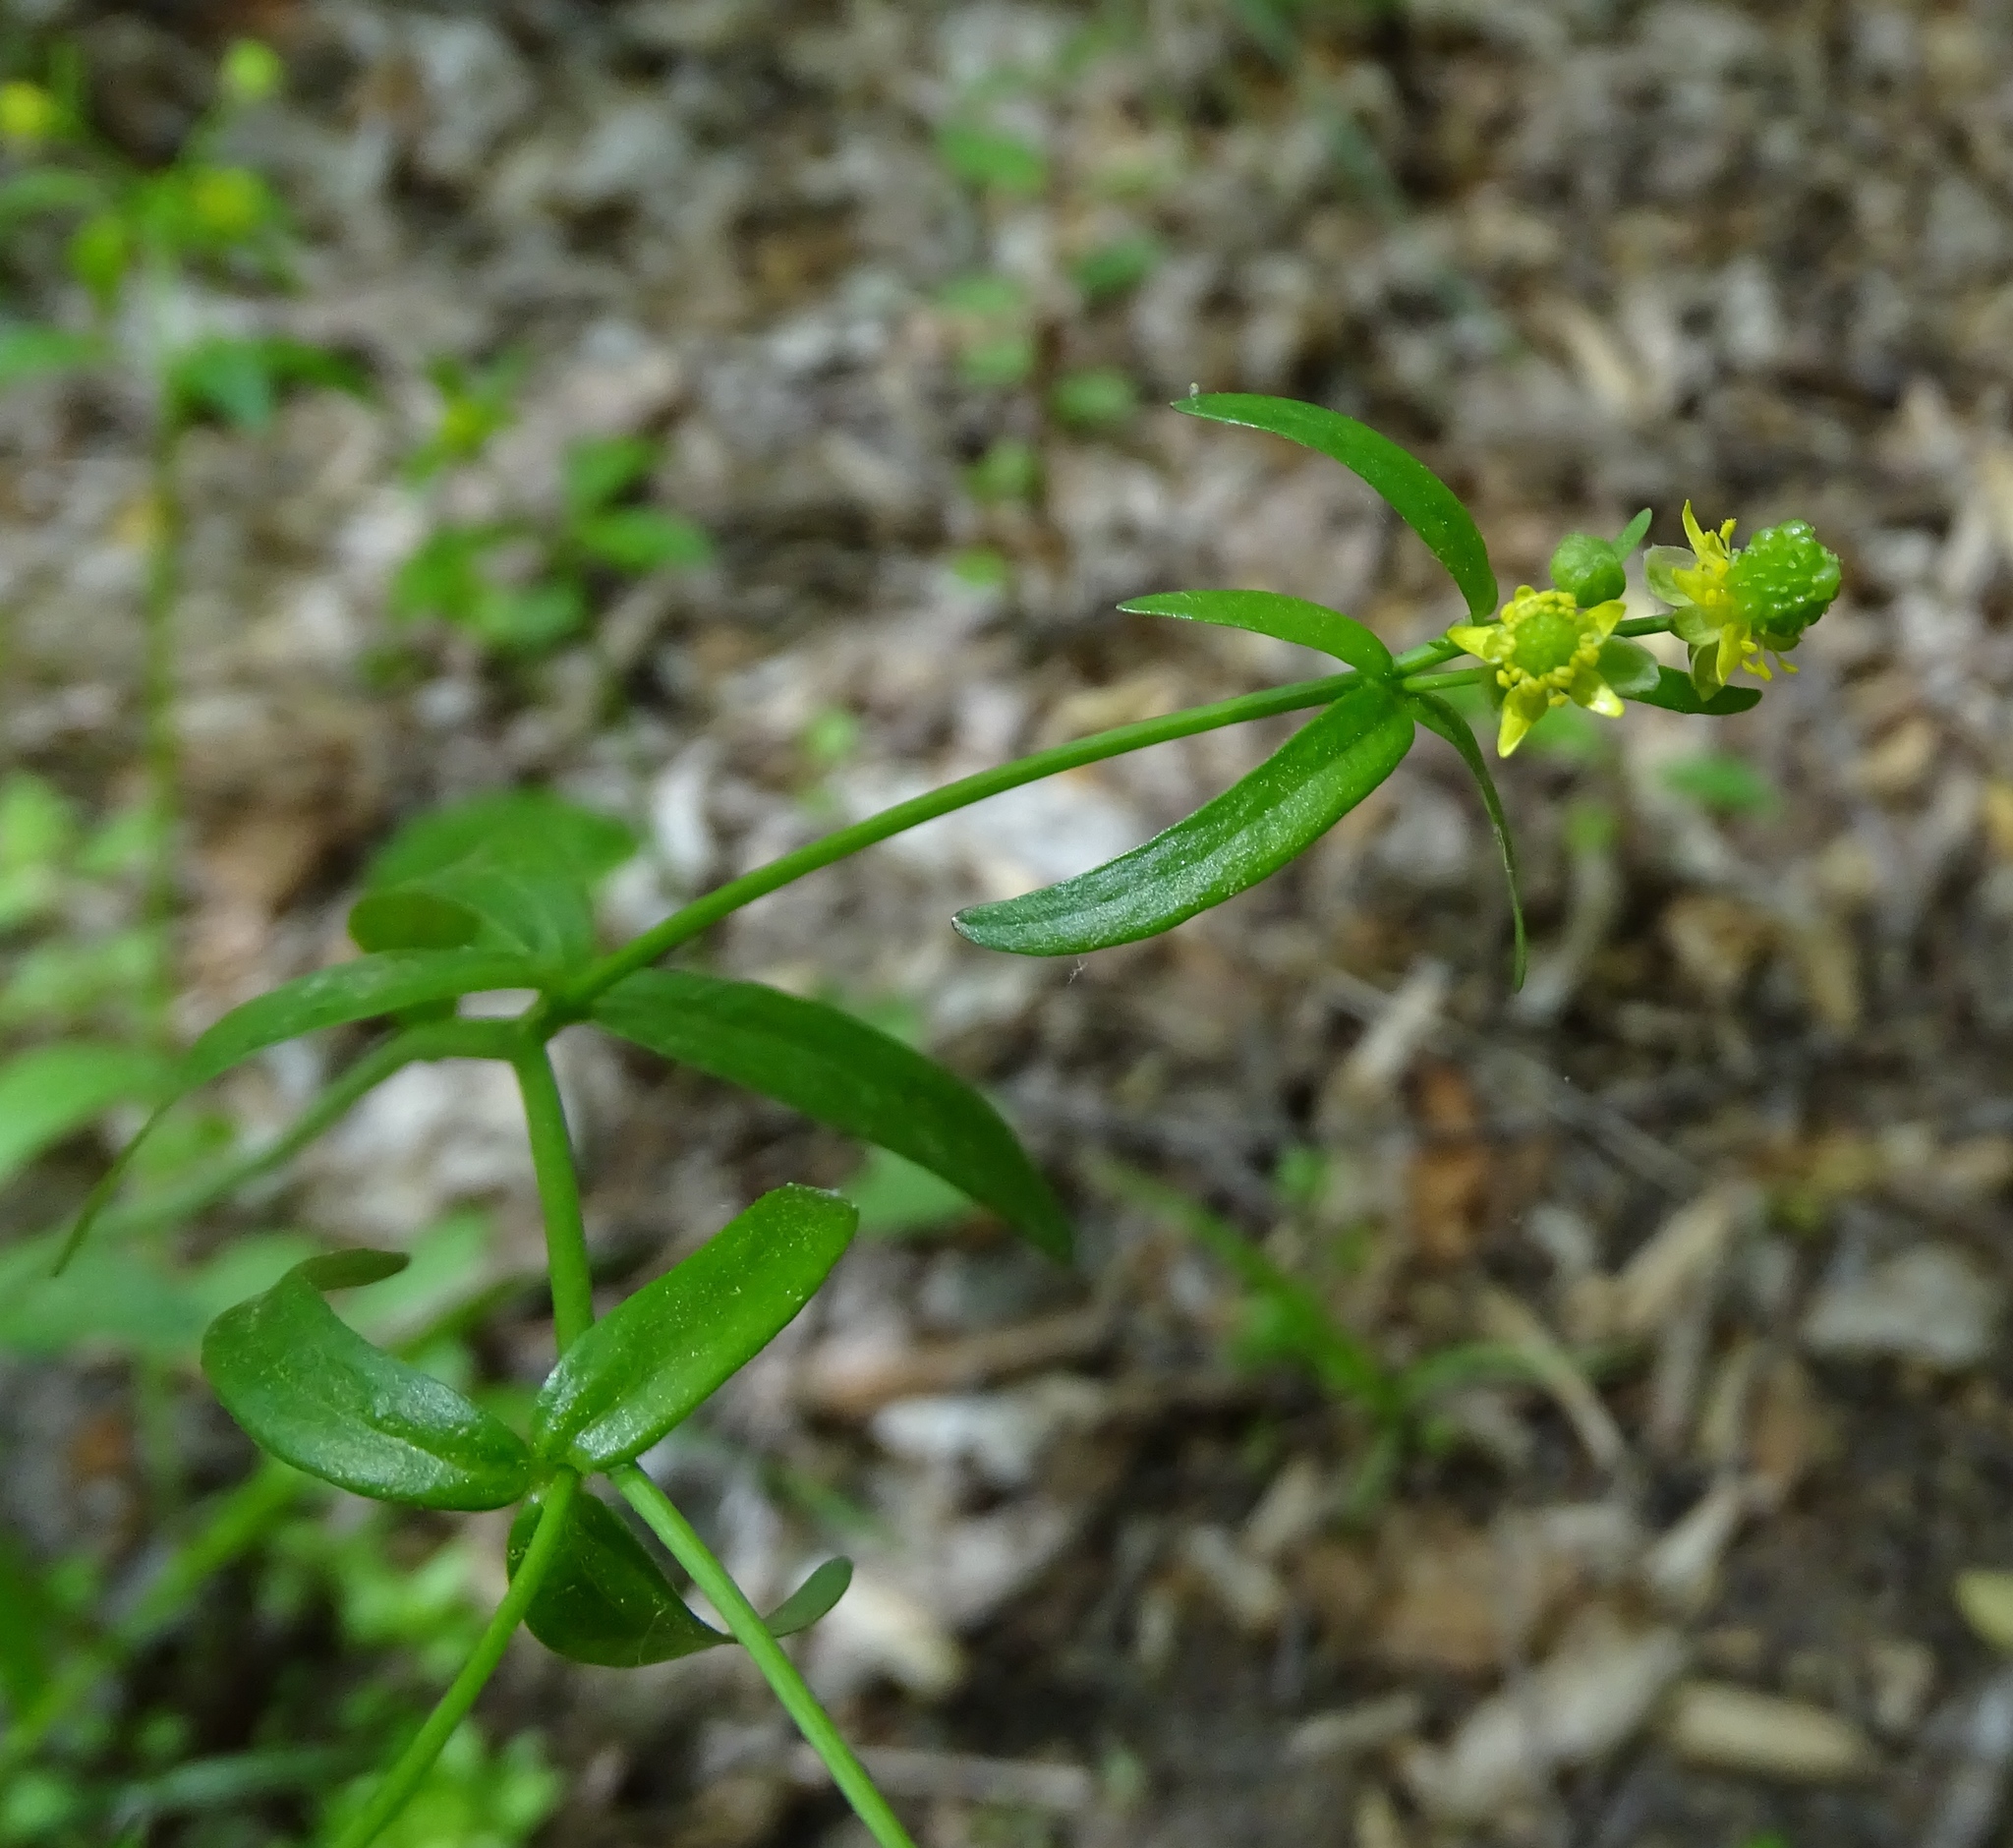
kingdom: Plantae
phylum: Tracheophyta
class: Magnoliopsida
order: Ranunculales
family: Ranunculaceae
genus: Ranunculus
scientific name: Ranunculus abortivus
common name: Early wood buttercup
